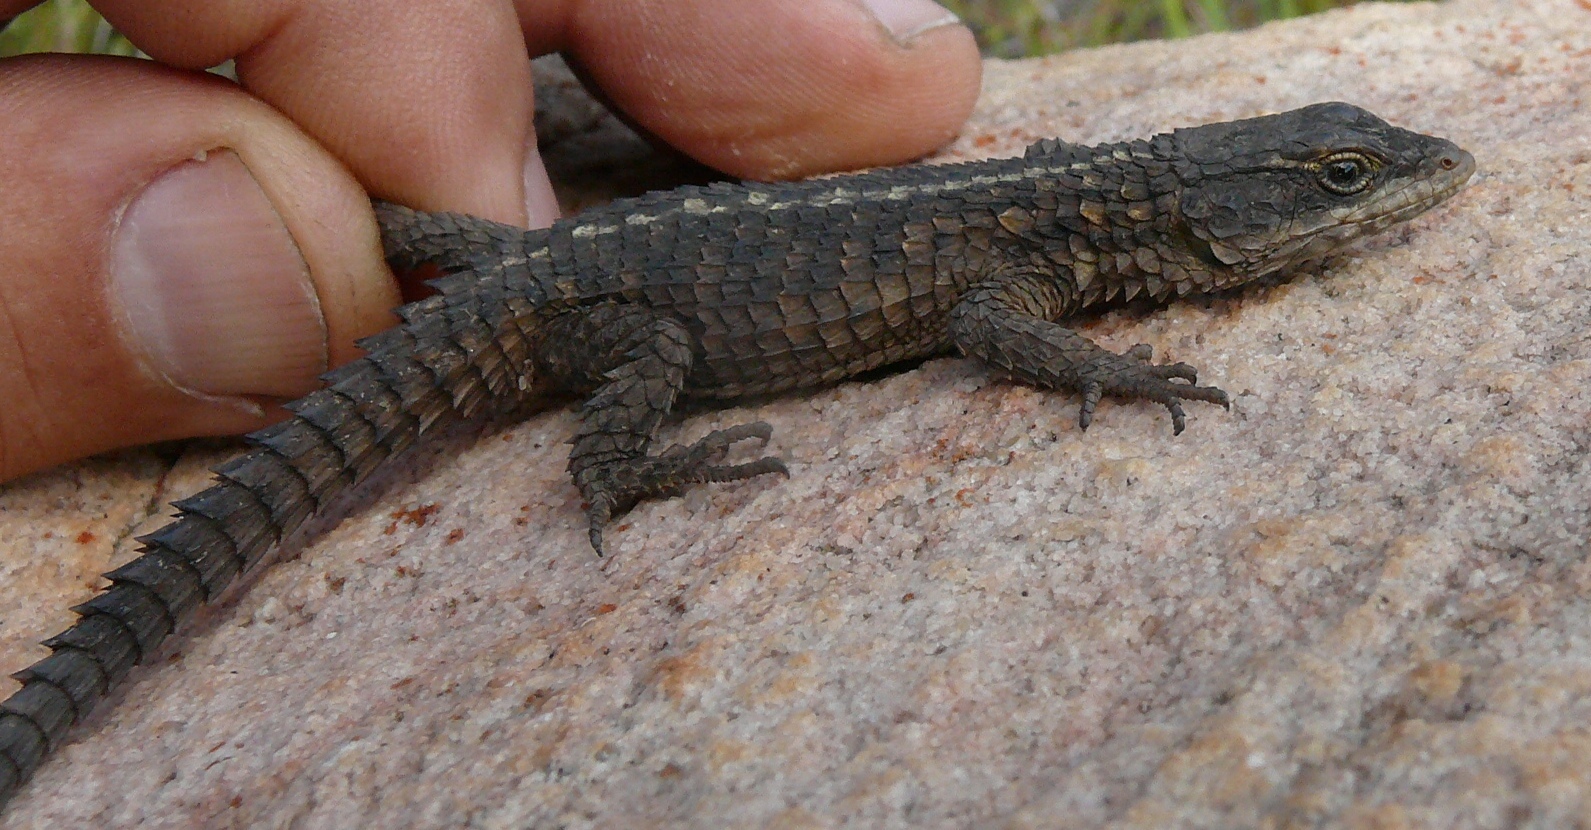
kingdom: Animalia
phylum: Chordata
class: Squamata
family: Cordylidae
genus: Cordylus
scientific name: Cordylus cordylus
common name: Cape girdled lizard
